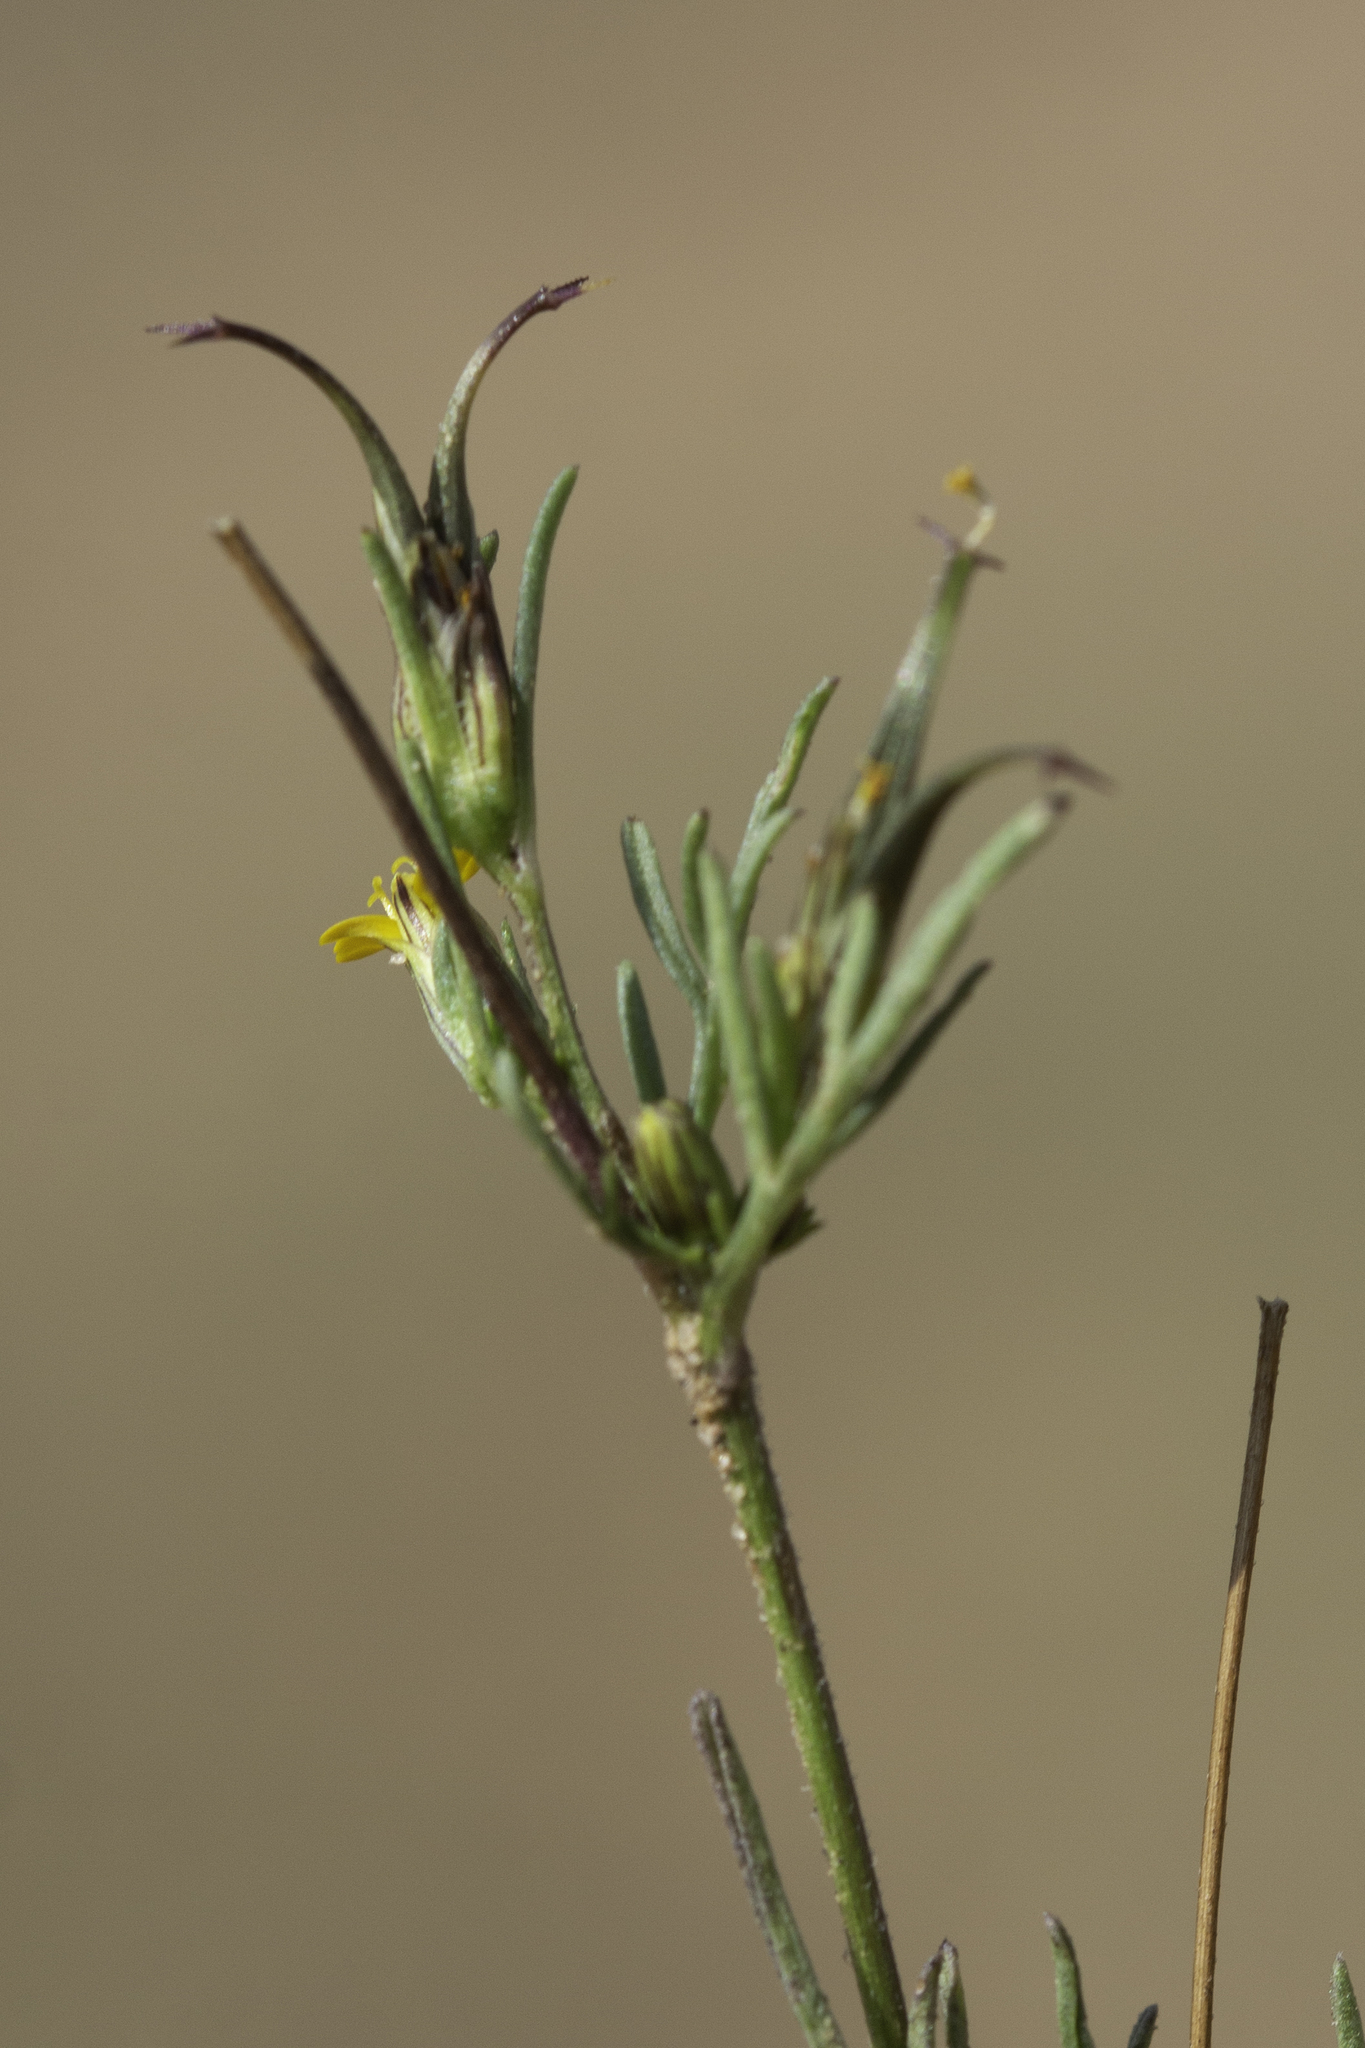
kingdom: Plantae
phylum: Tracheophyta
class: Magnoliopsida
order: Asterales
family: Asteraceae
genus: Heterosperma
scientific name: Heterosperma pinnatum
